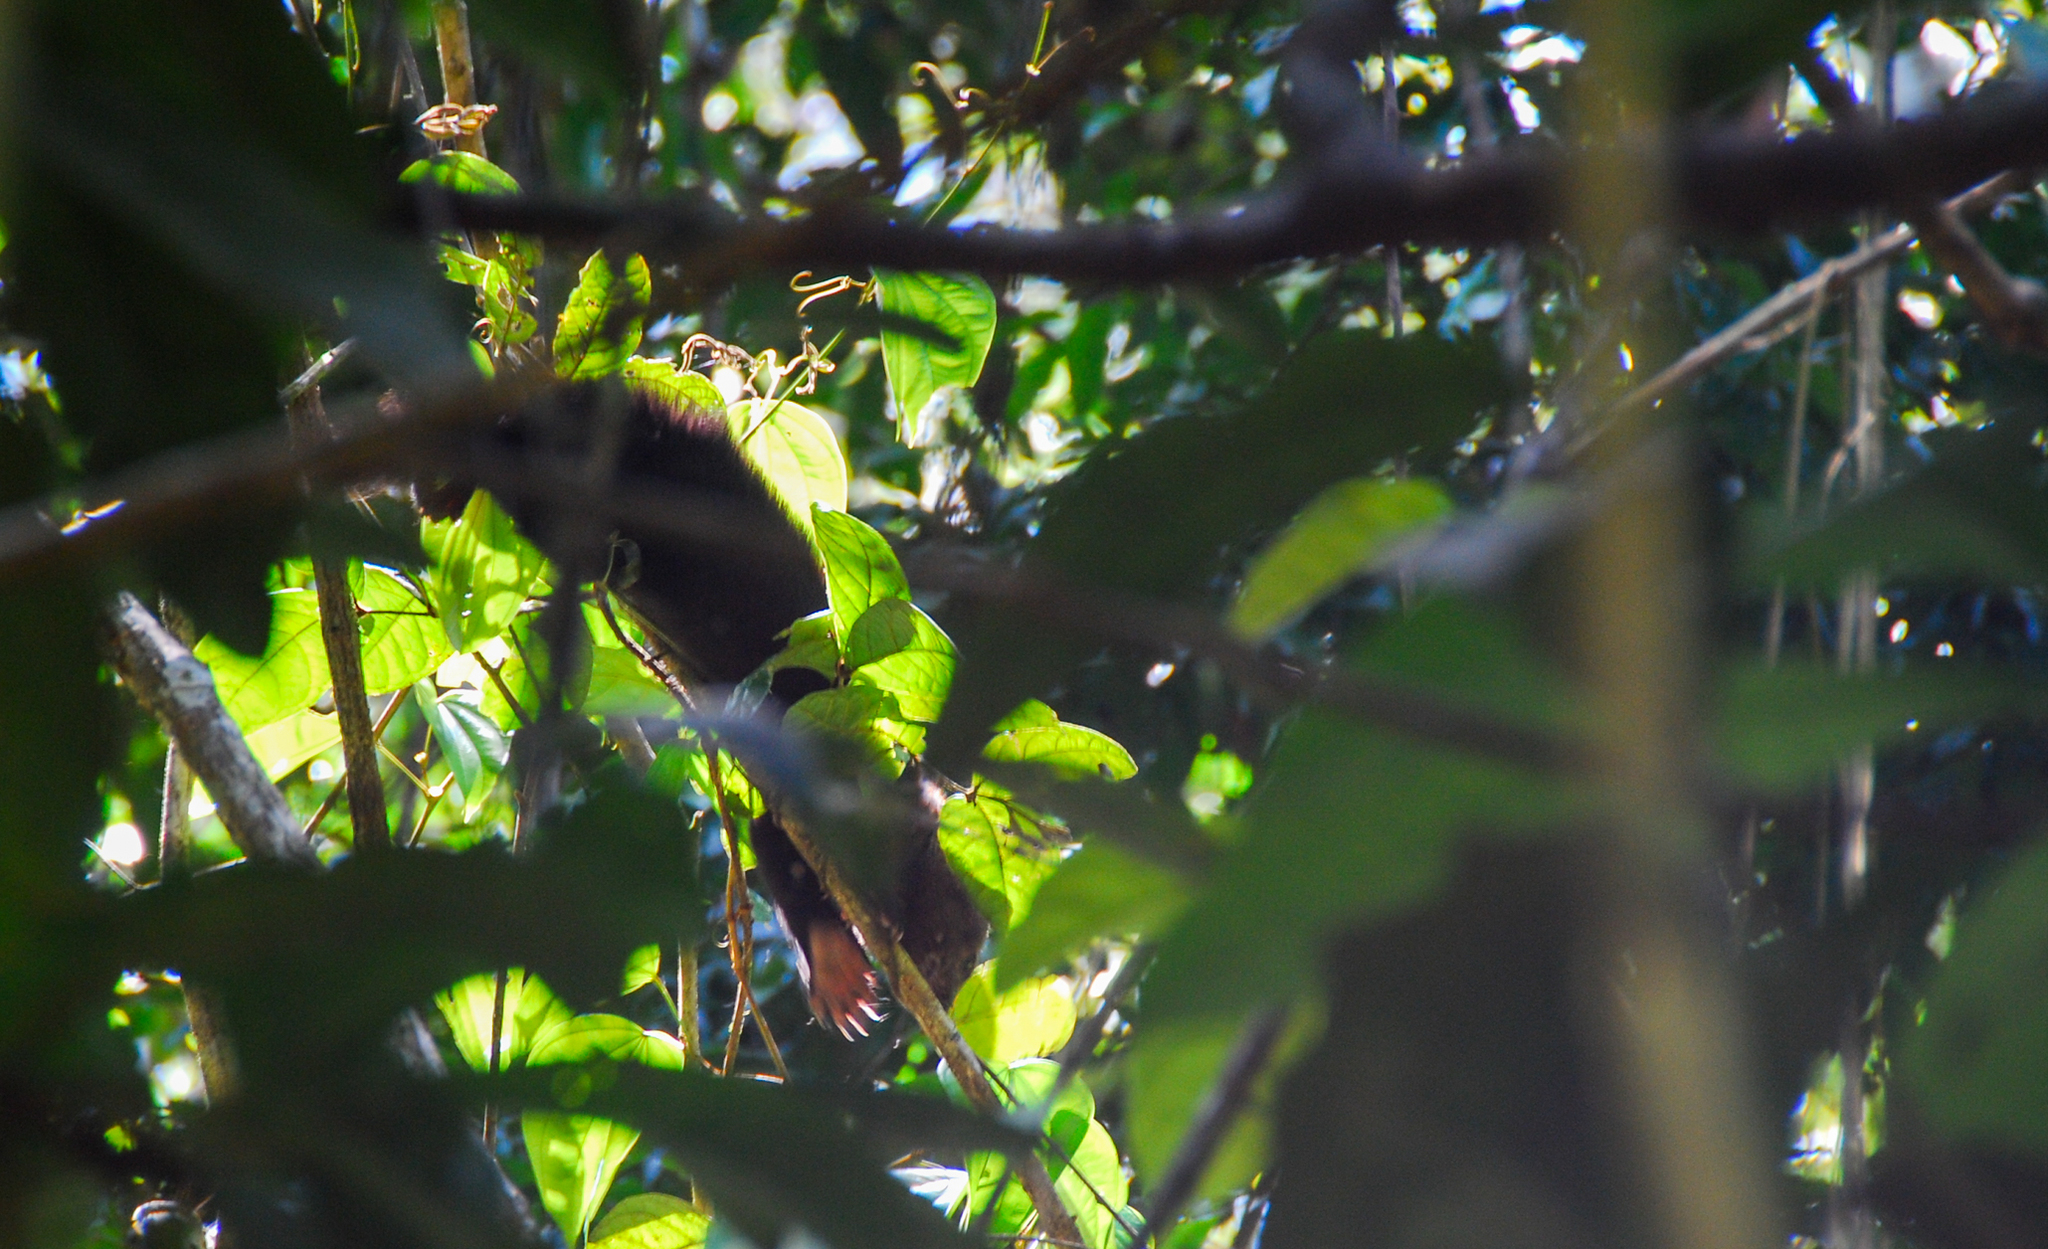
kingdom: Animalia
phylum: Chordata
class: Mammalia
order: Carnivora
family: Mustelidae
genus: Eira
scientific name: Eira barbara
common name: Tayra
